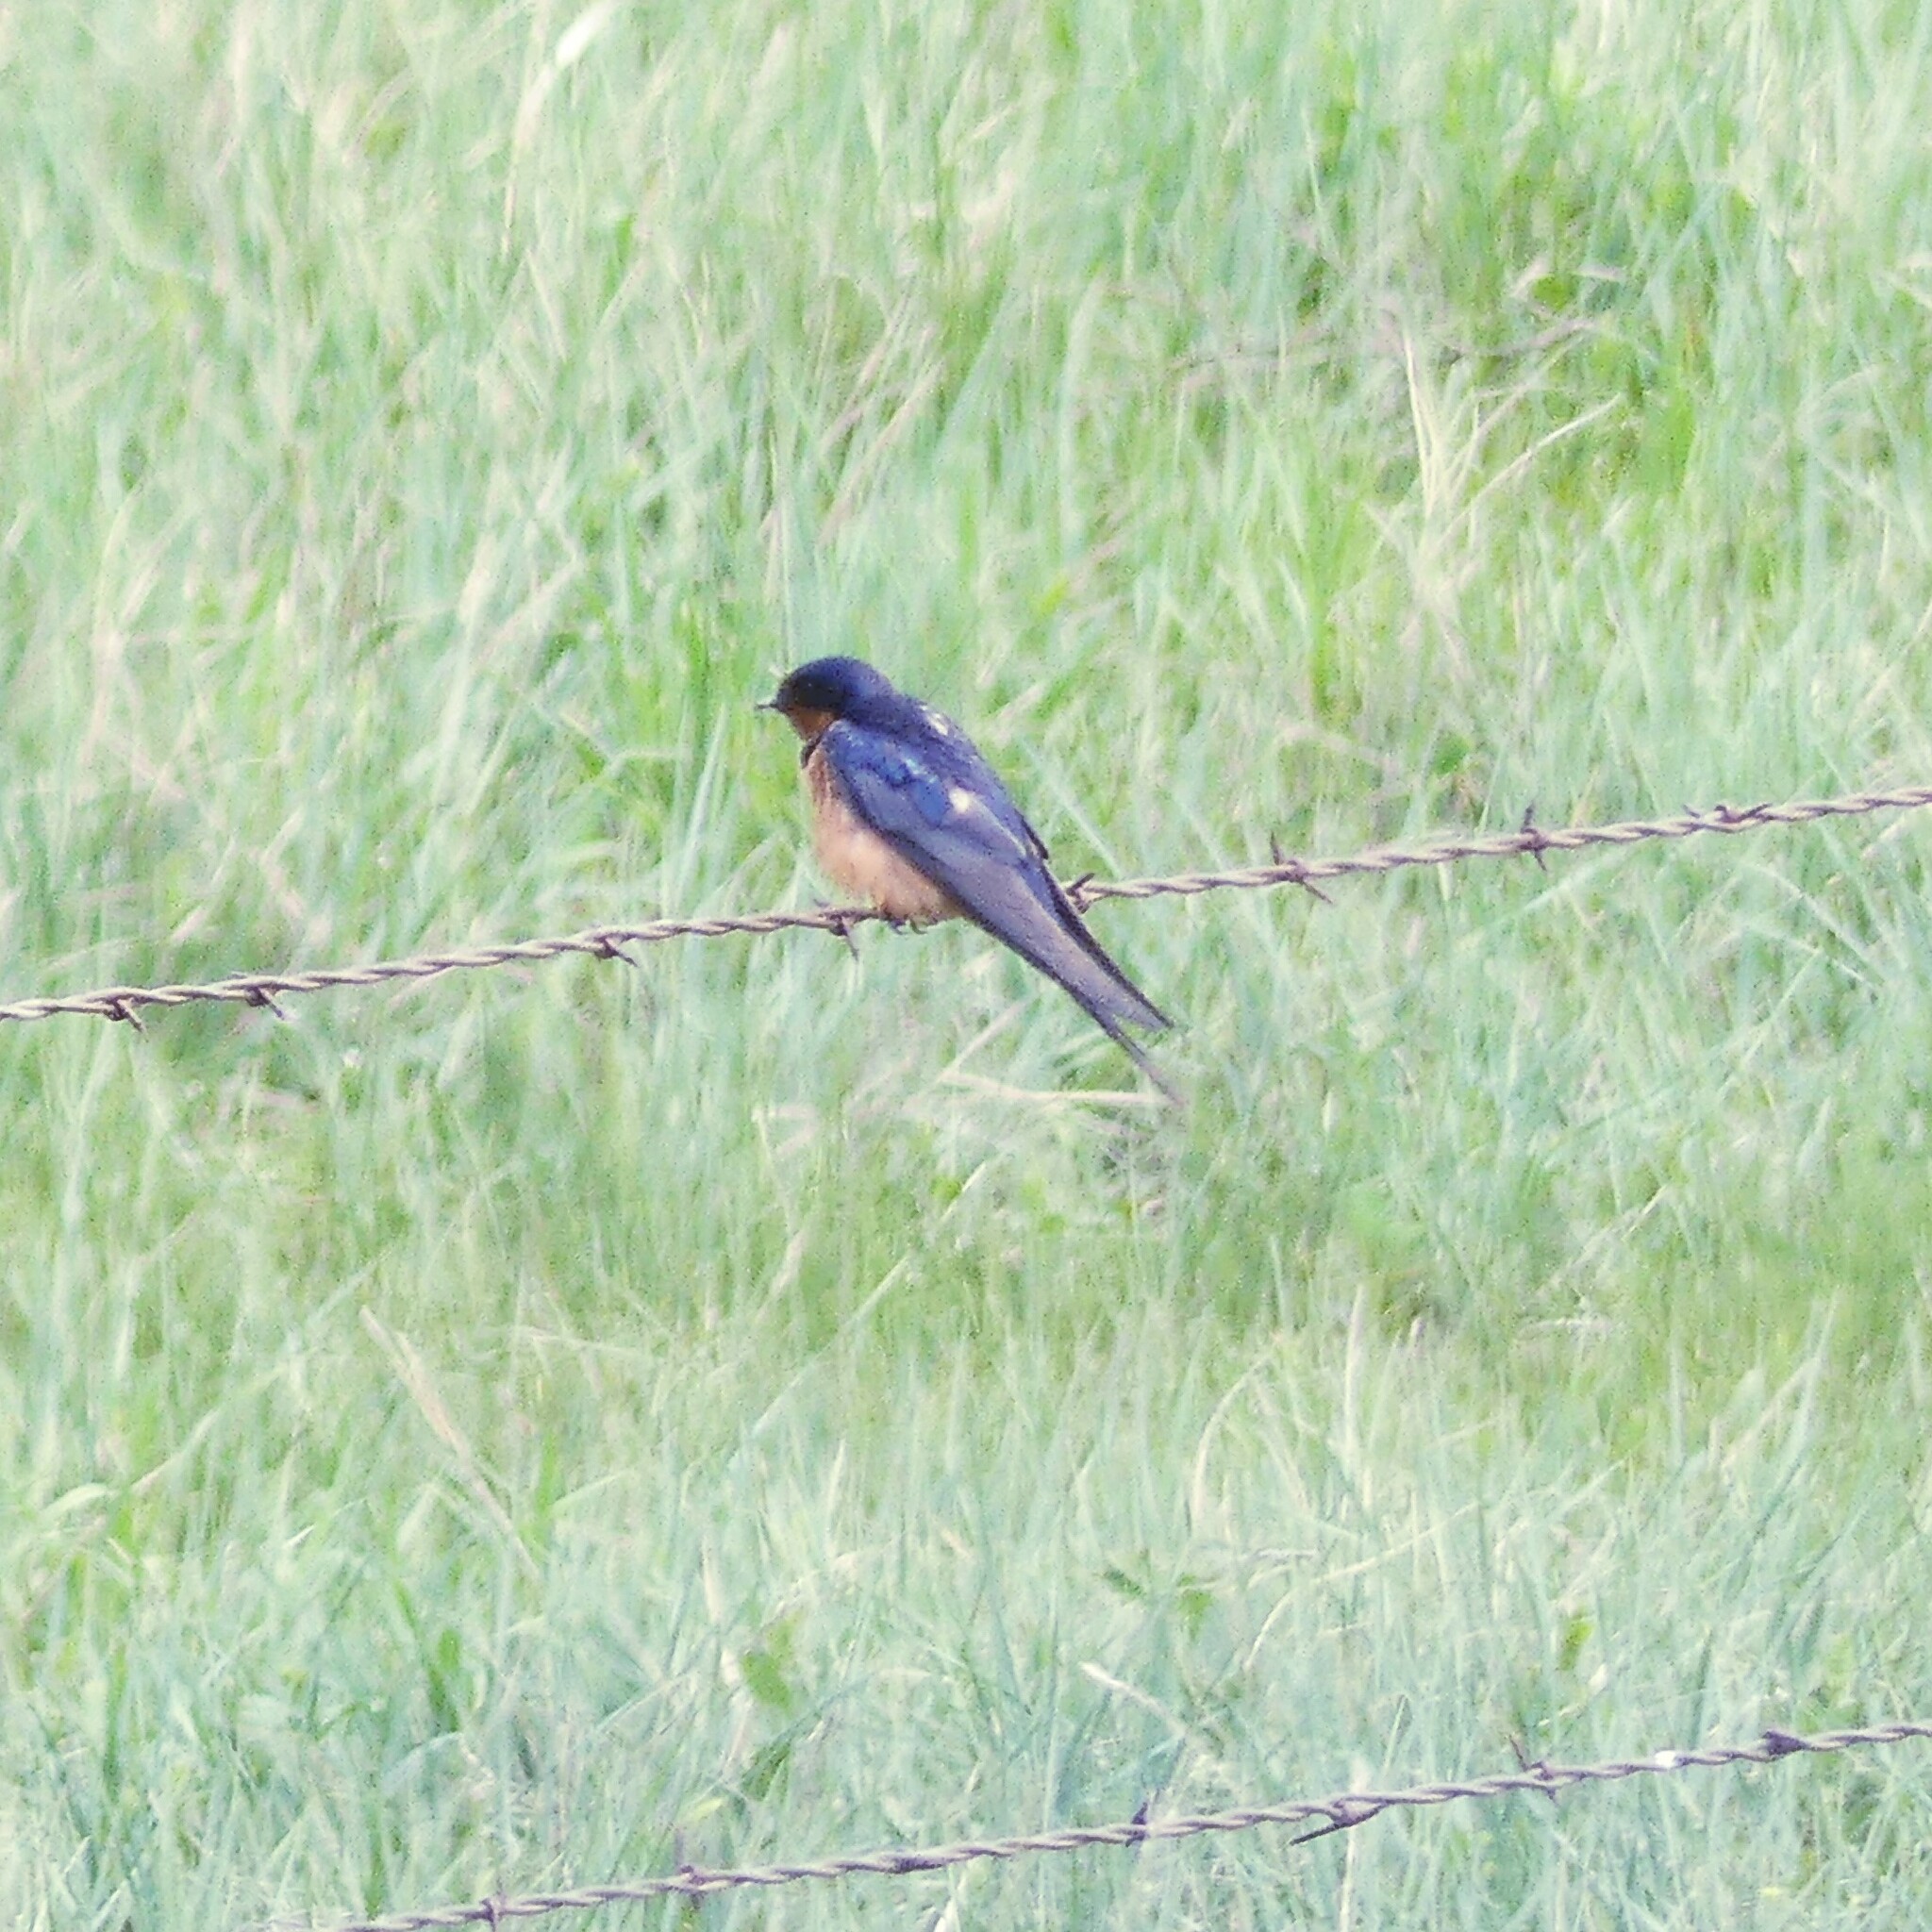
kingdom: Animalia
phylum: Chordata
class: Aves
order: Passeriformes
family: Hirundinidae
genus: Hirundo
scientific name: Hirundo rustica
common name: Barn swallow
